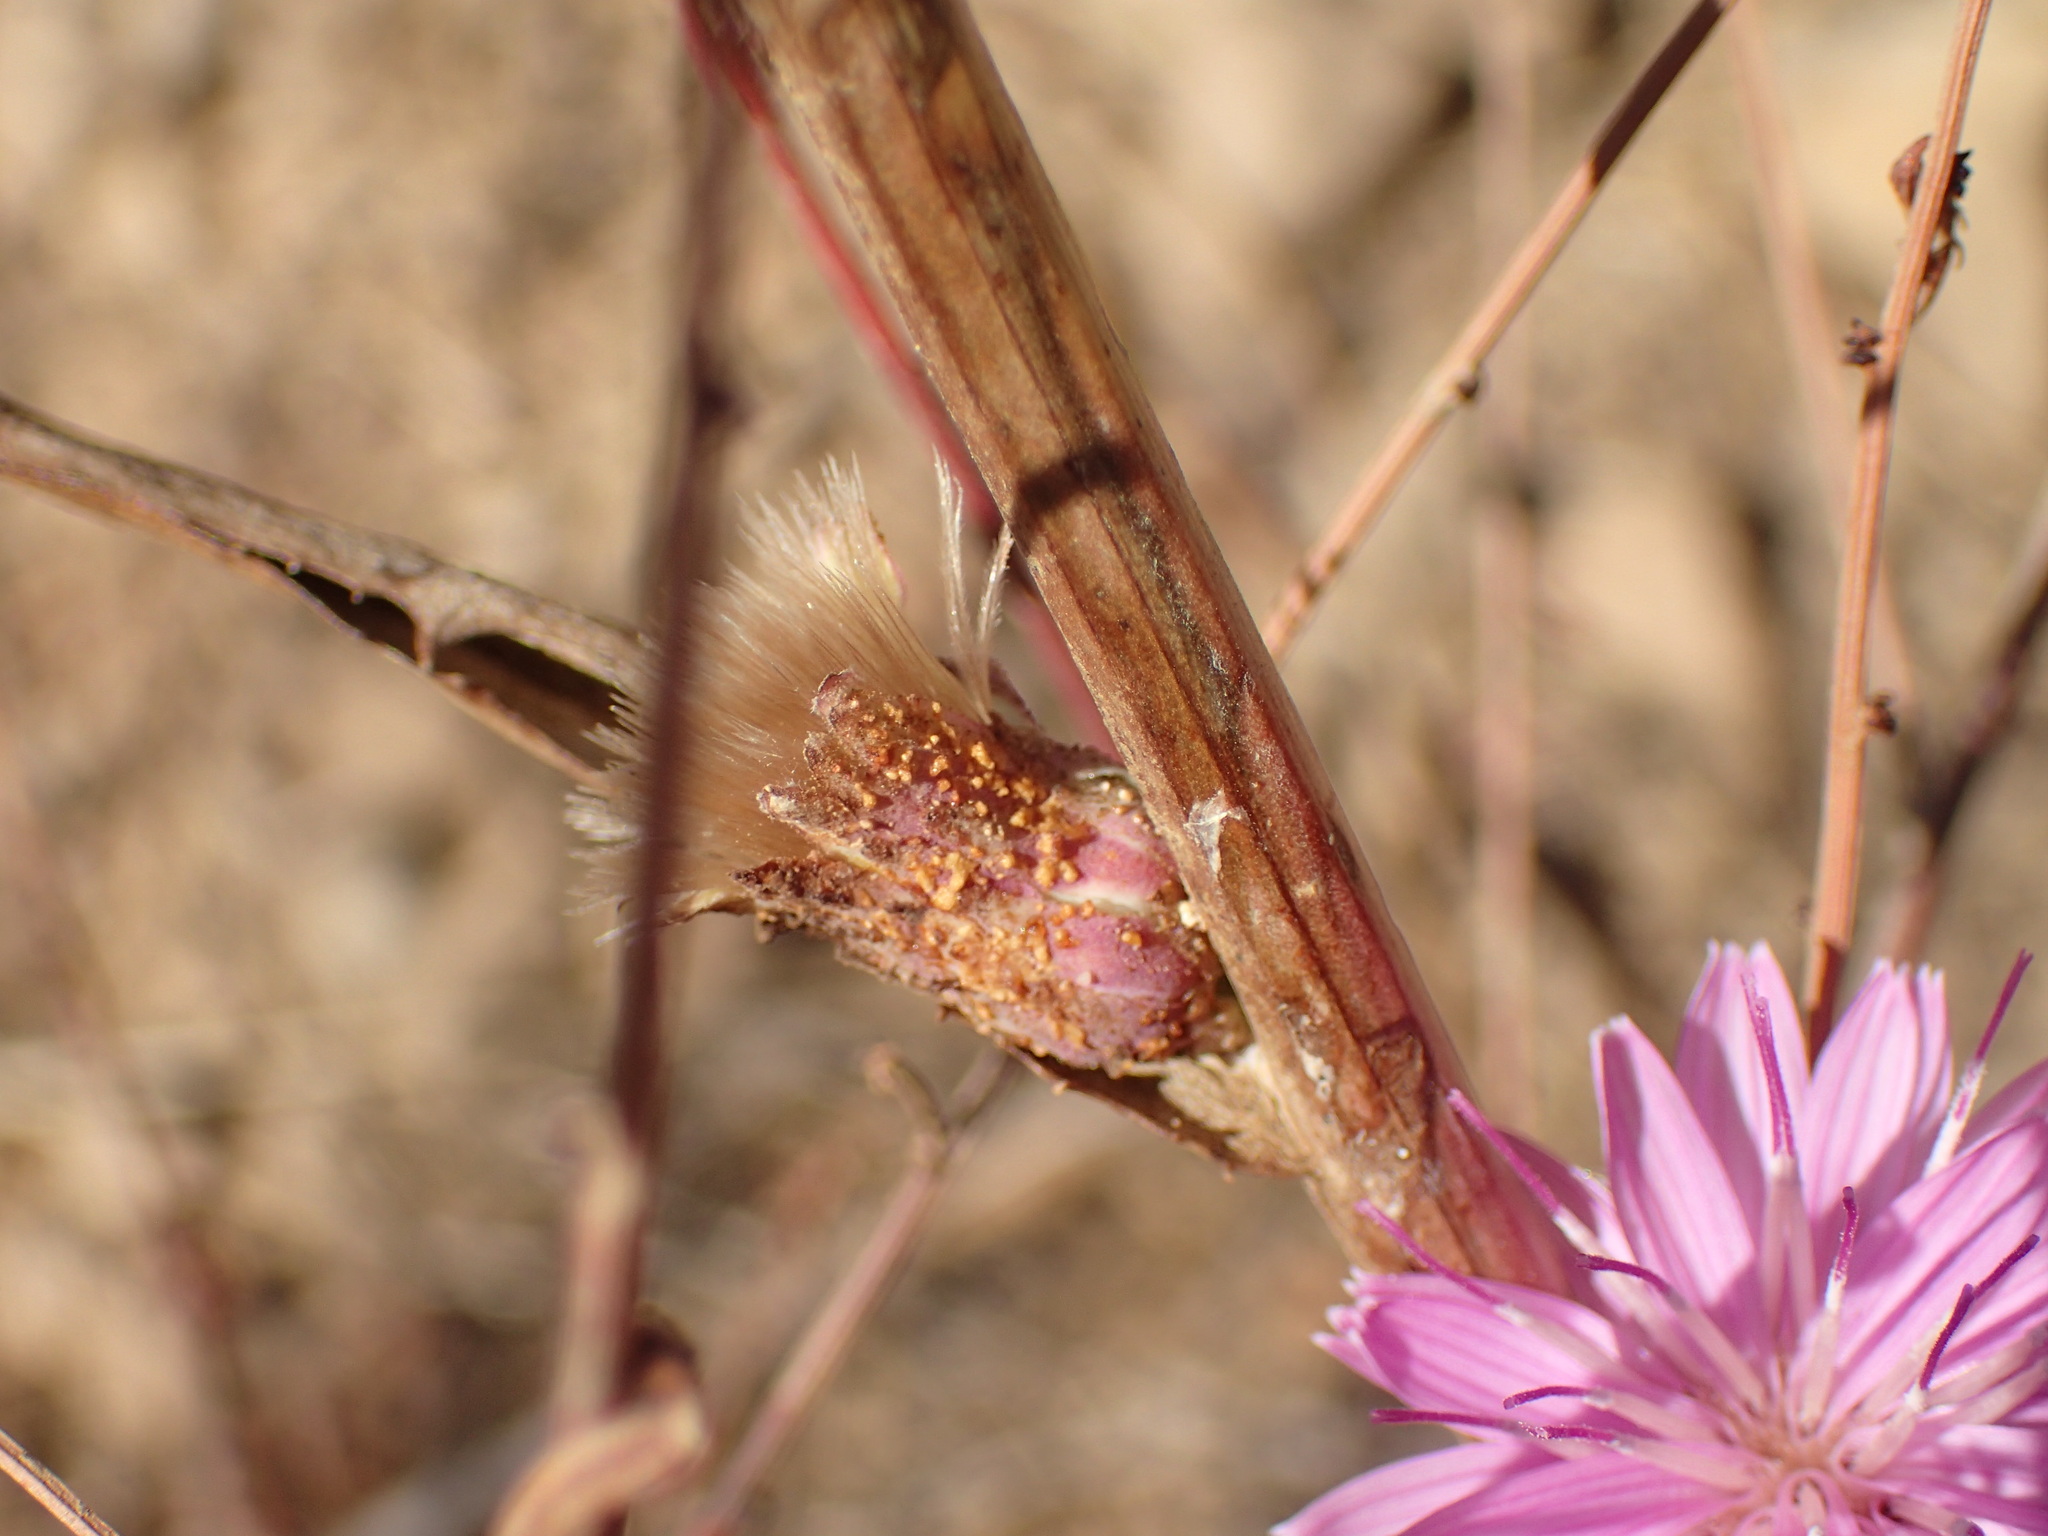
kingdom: Plantae
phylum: Tracheophyta
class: Magnoliopsida
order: Asterales
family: Asteraceae
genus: Stephanomeria
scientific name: Stephanomeria cichoriacea
